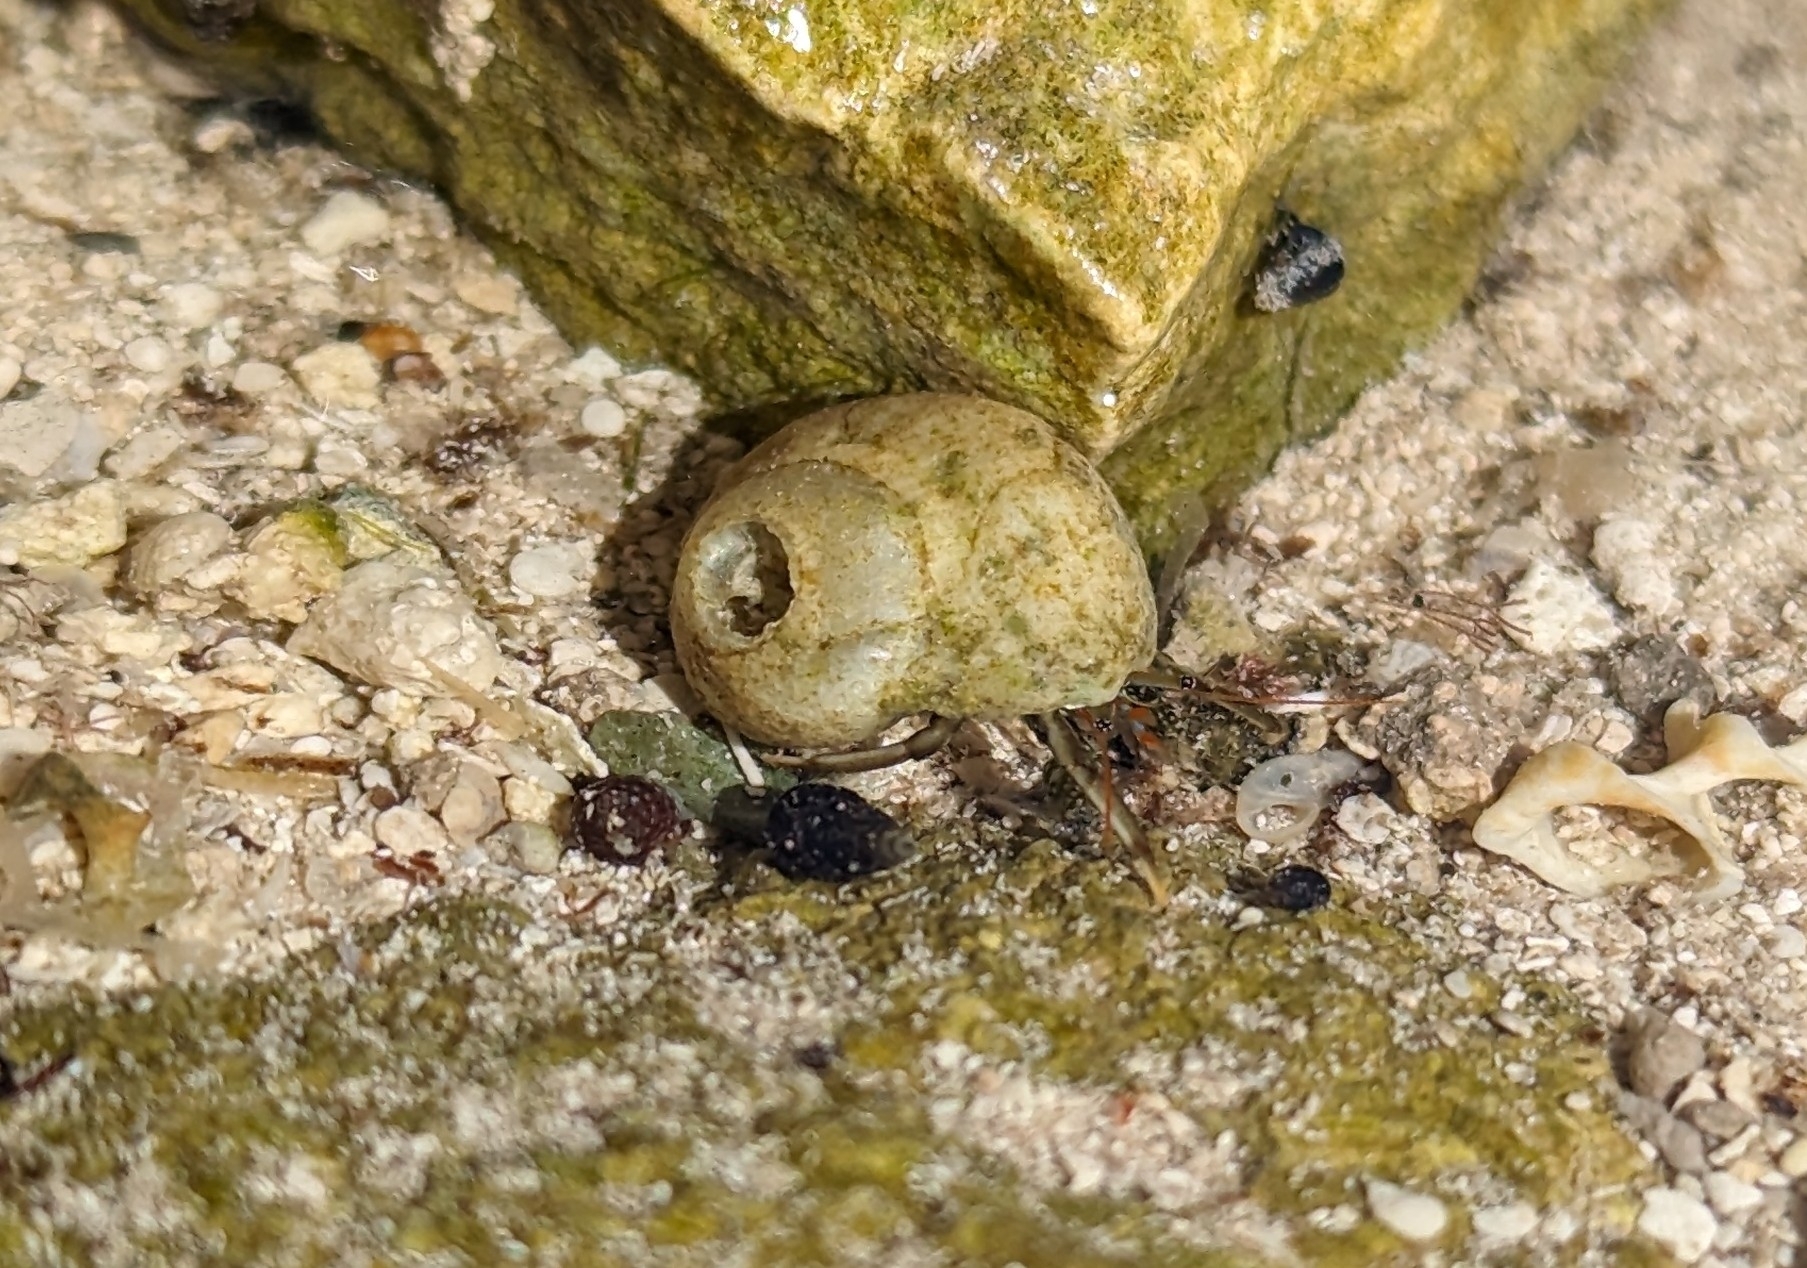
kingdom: Animalia
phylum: Arthropoda
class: Malacostraca
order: Decapoda
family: Diogenidae
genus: Clibanarius
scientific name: Clibanarius brasiliensis
